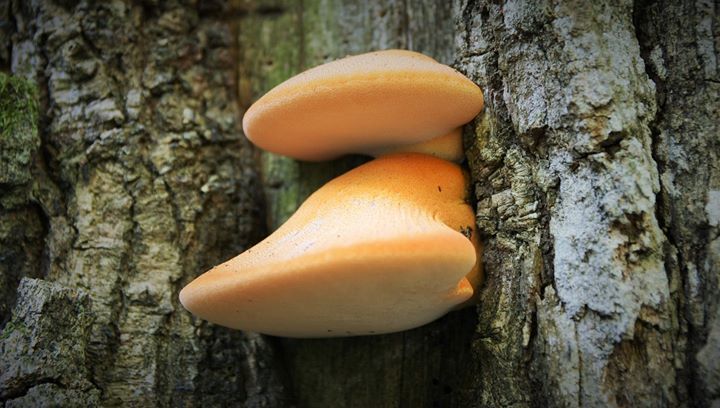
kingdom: Fungi
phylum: Basidiomycota
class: Agaricomycetes
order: Agaricales
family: Fistulinaceae
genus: Fistulina
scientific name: Fistulina hepatica
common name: Beef-steak fungus
